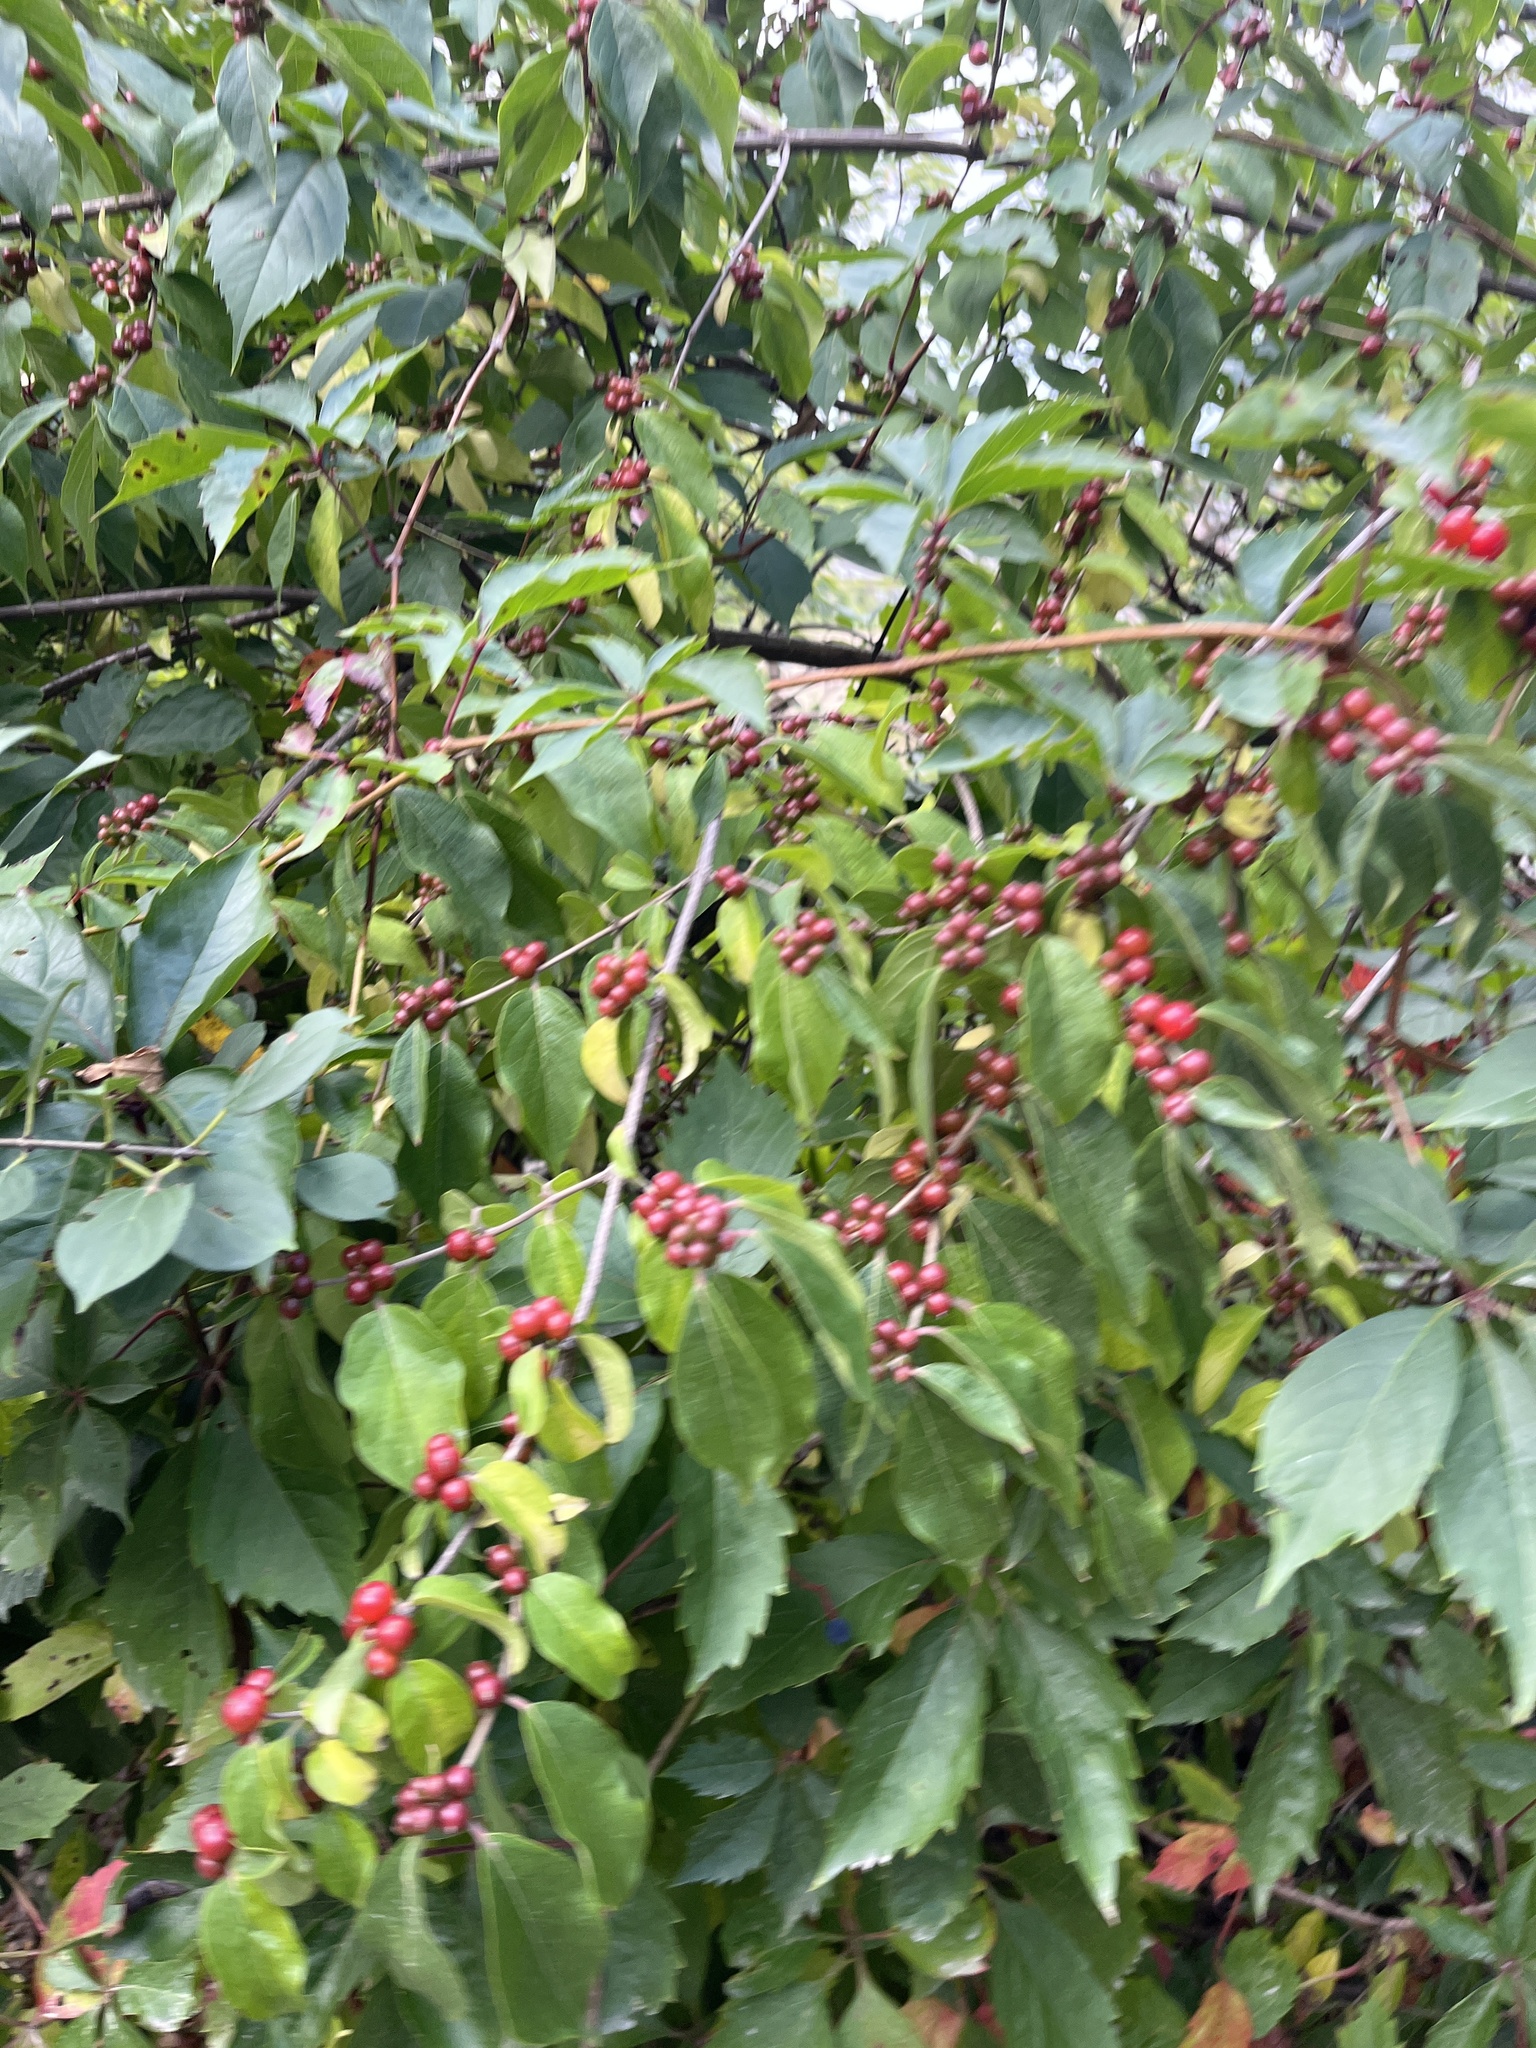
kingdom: Plantae
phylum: Tracheophyta
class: Magnoliopsida
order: Dipsacales
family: Caprifoliaceae
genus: Lonicera
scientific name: Lonicera maackii
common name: Amur honeysuckle
